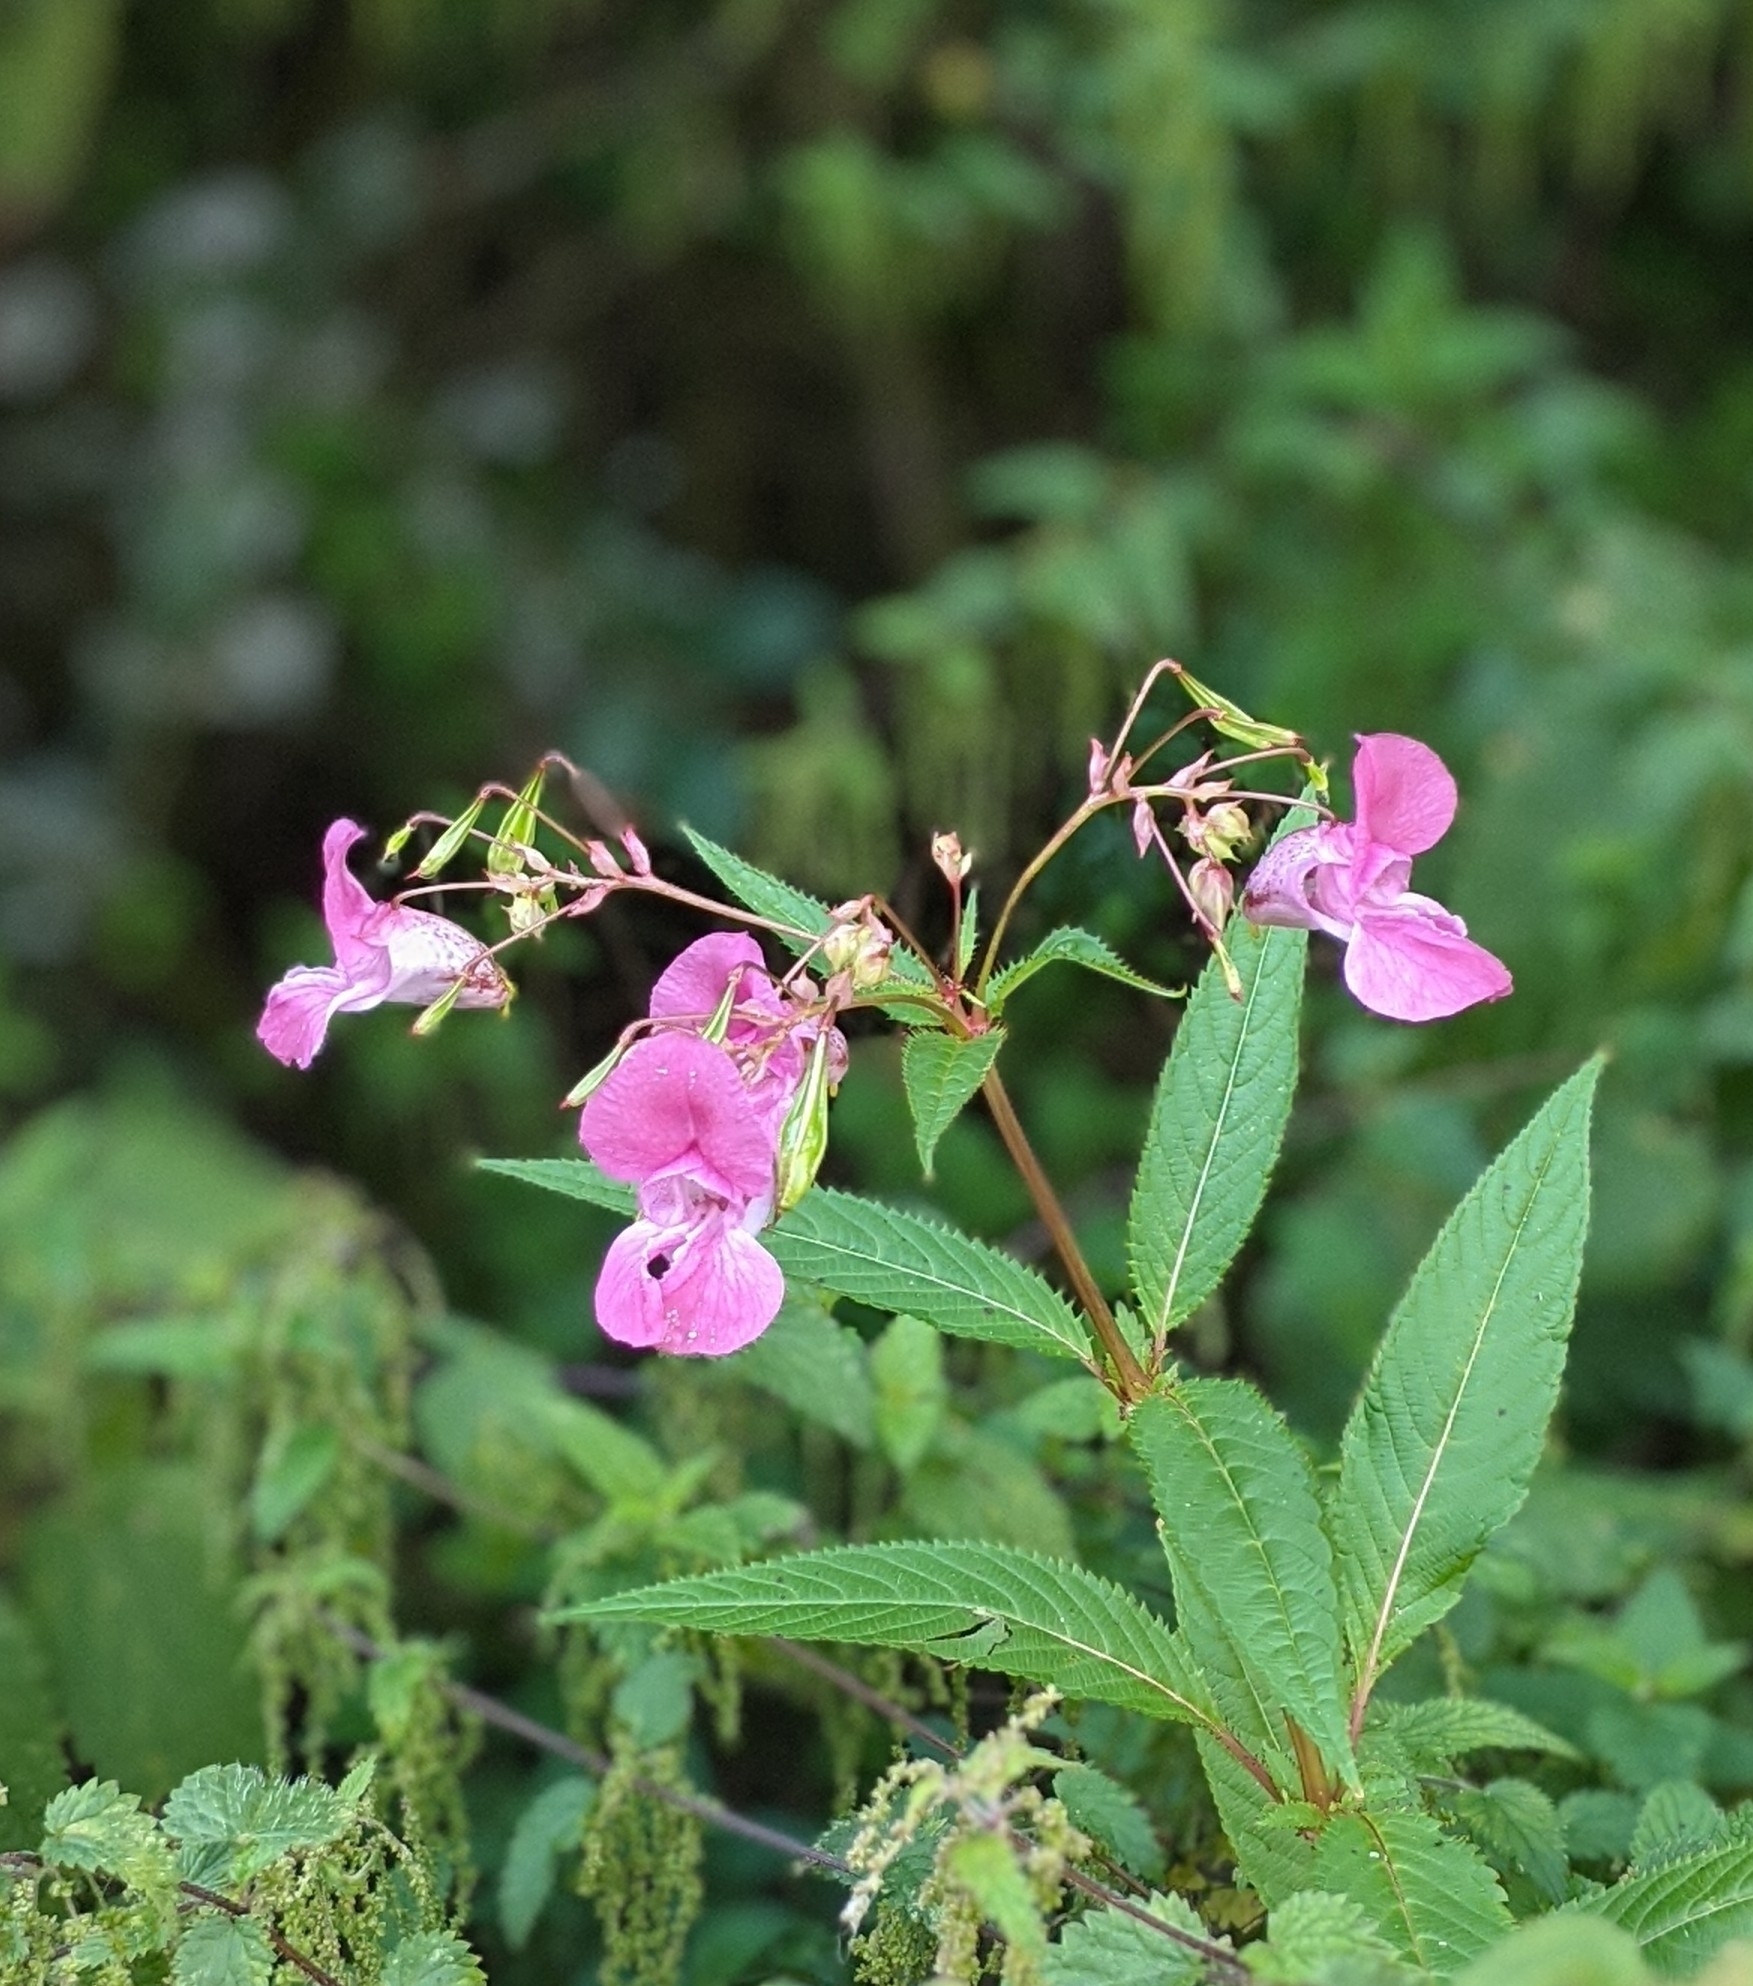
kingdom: Plantae
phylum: Tracheophyta
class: Magnoliopsida
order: Ericales
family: Balsaminaceae
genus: Impatiens
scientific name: Impatiens glandulifera
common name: Himalayan balsam
